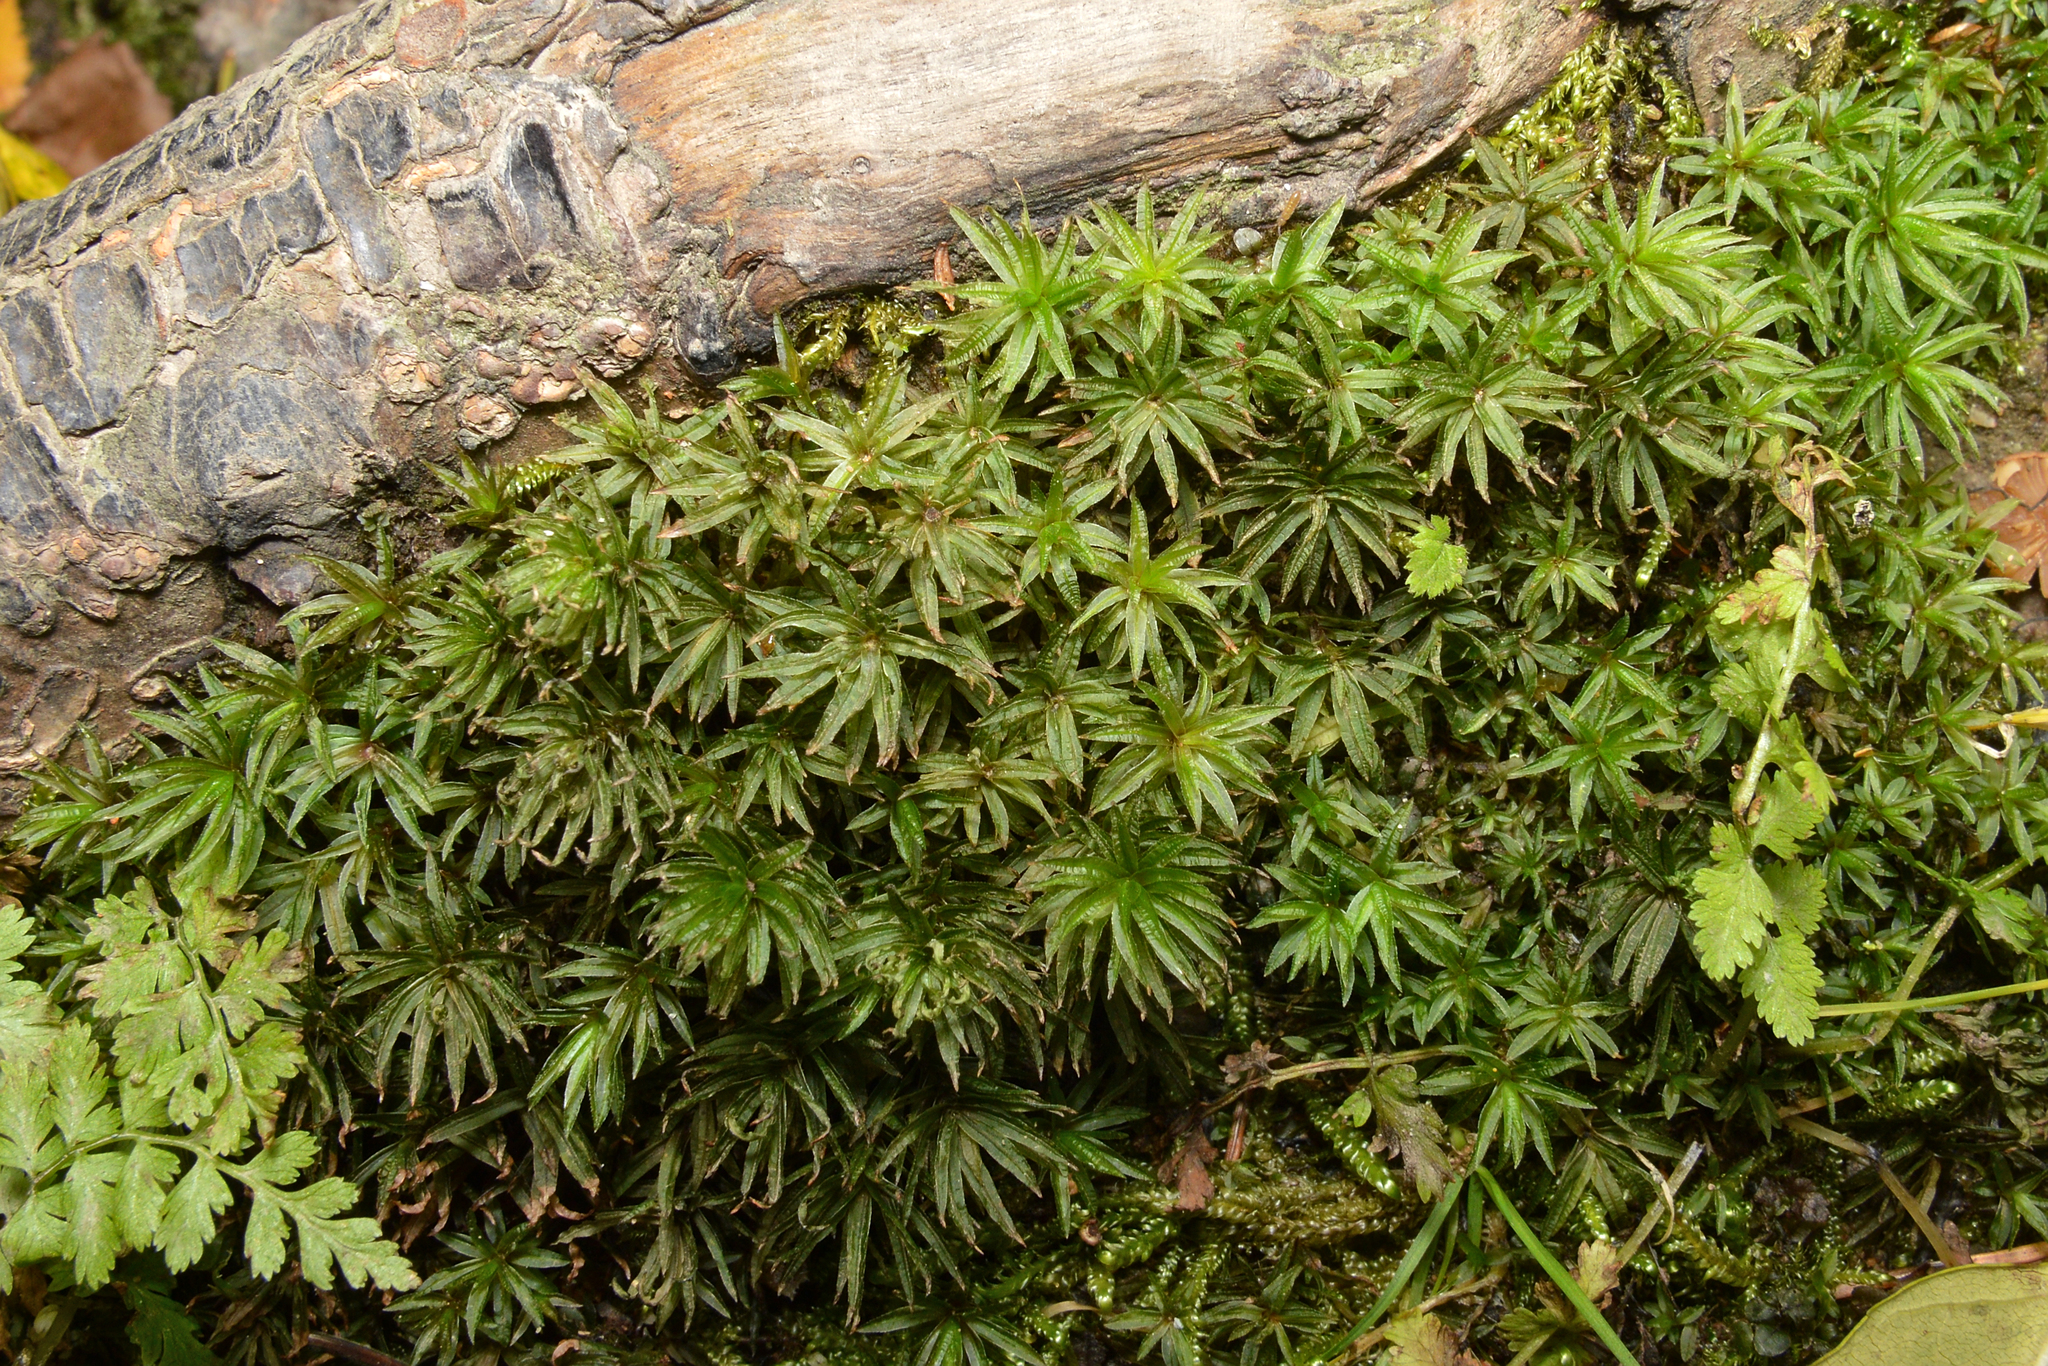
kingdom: Plantae
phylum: Bryophyta
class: Polytrichopsida
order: Polytrichales
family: Polytrichaceae
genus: Atrichum
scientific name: Atrichum undulatum
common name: Common smoothcap
